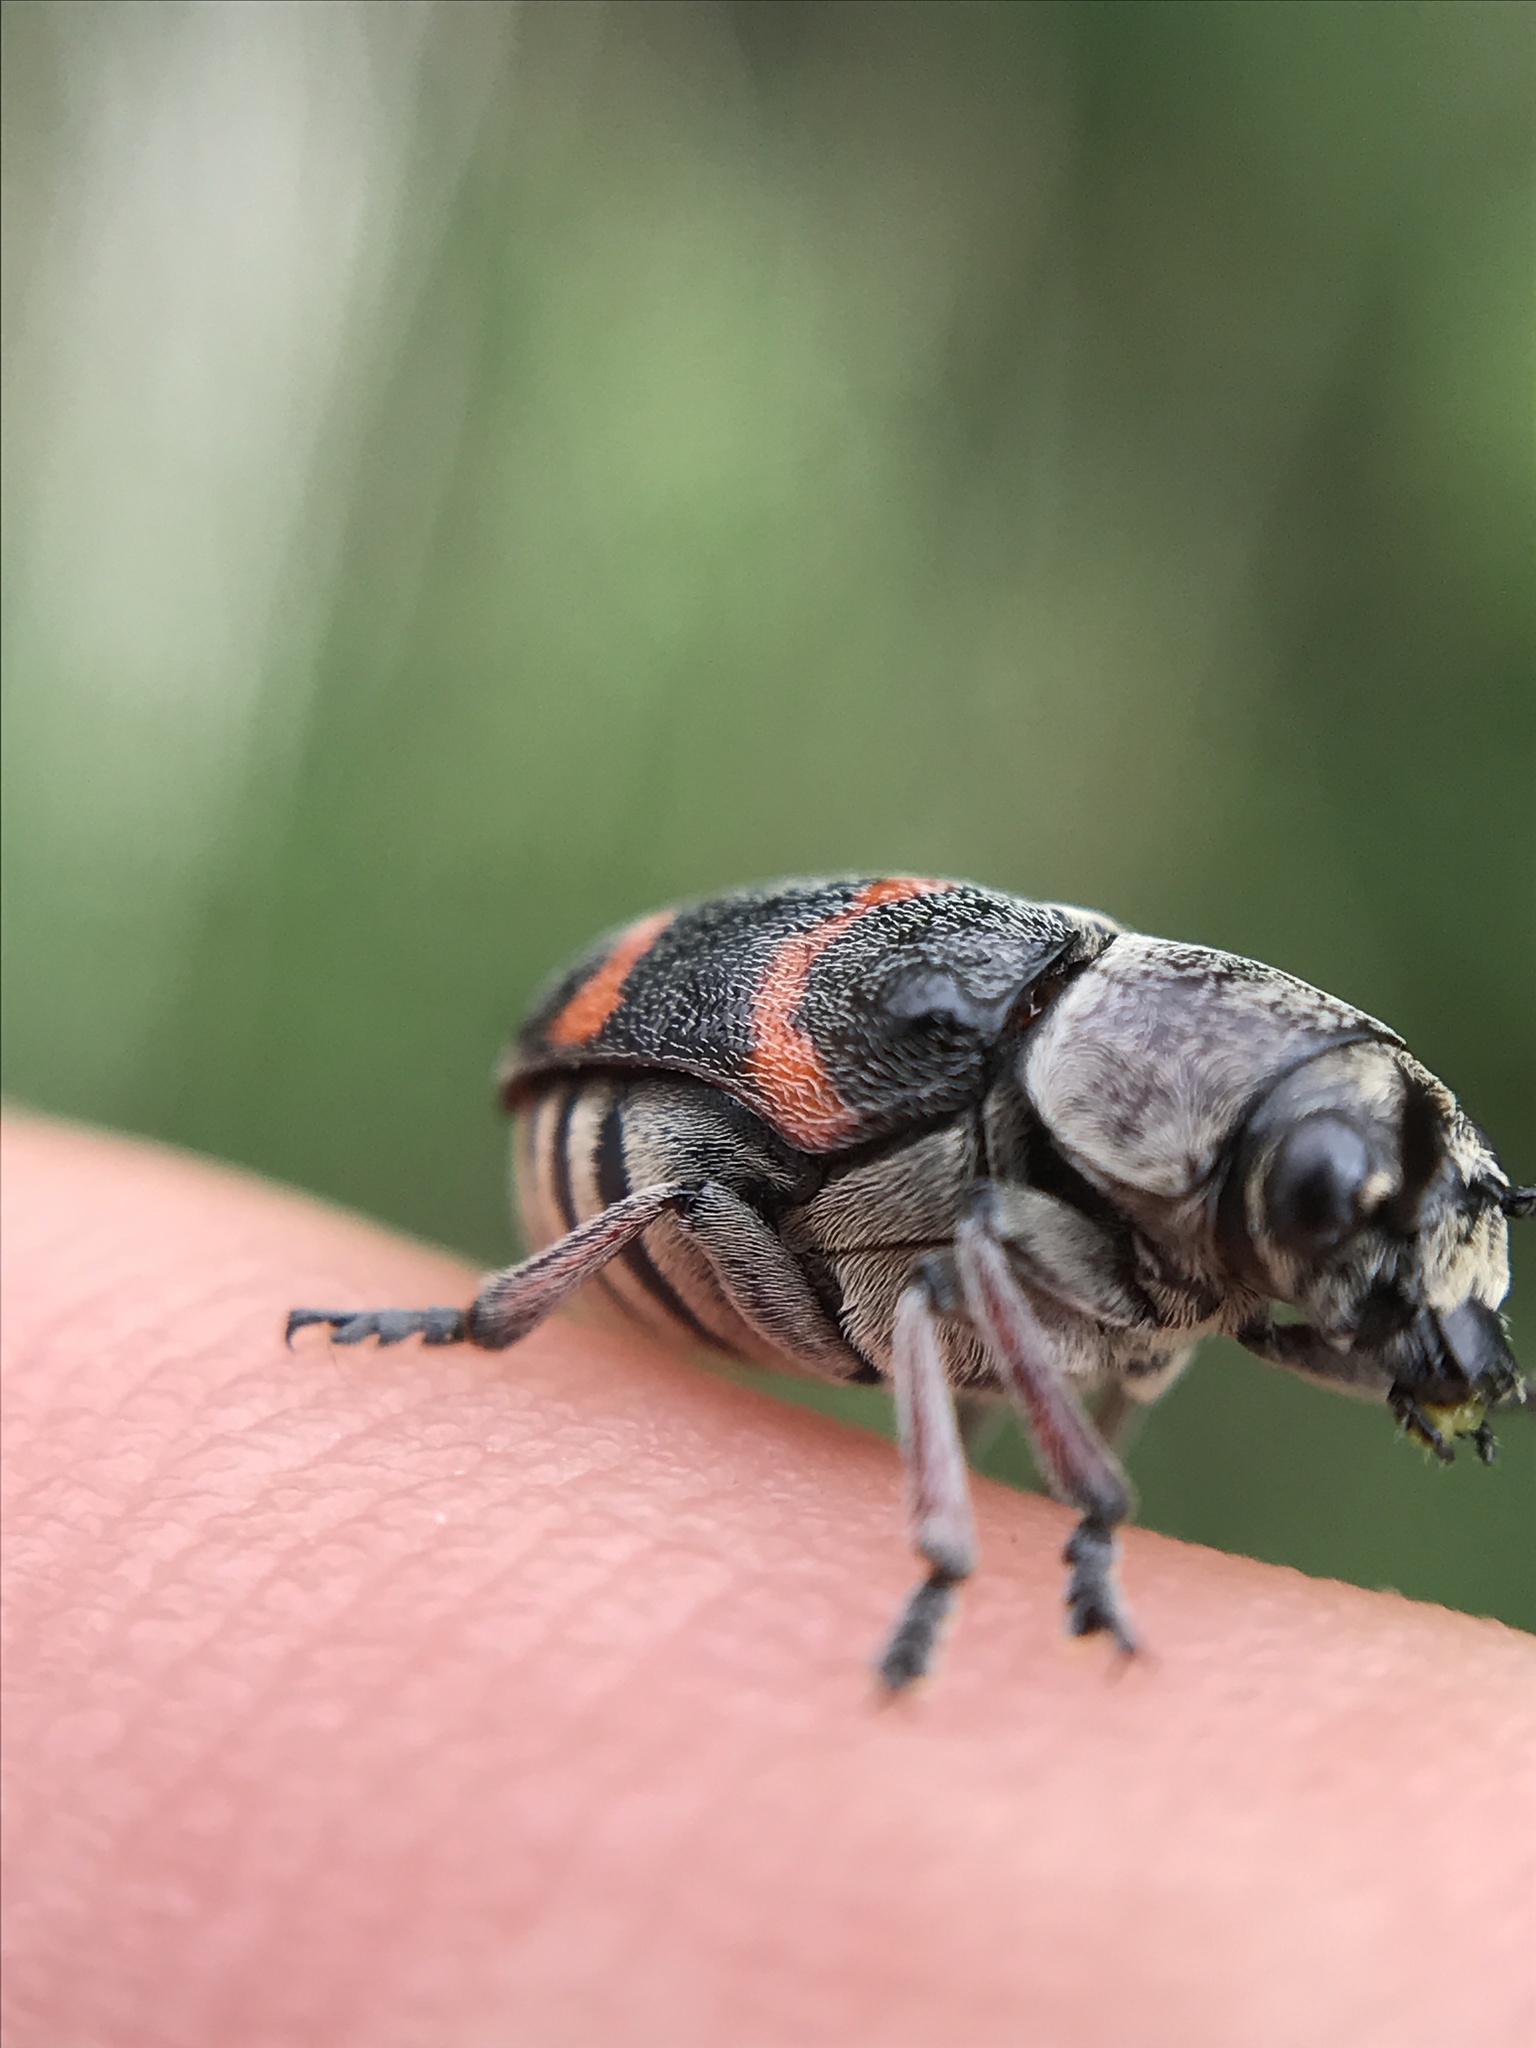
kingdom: Animalia
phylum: Arthropoda
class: Insecta
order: Coleoptera
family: Chrysomelidae
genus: Megalostomis
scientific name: Megalostomis gazella
